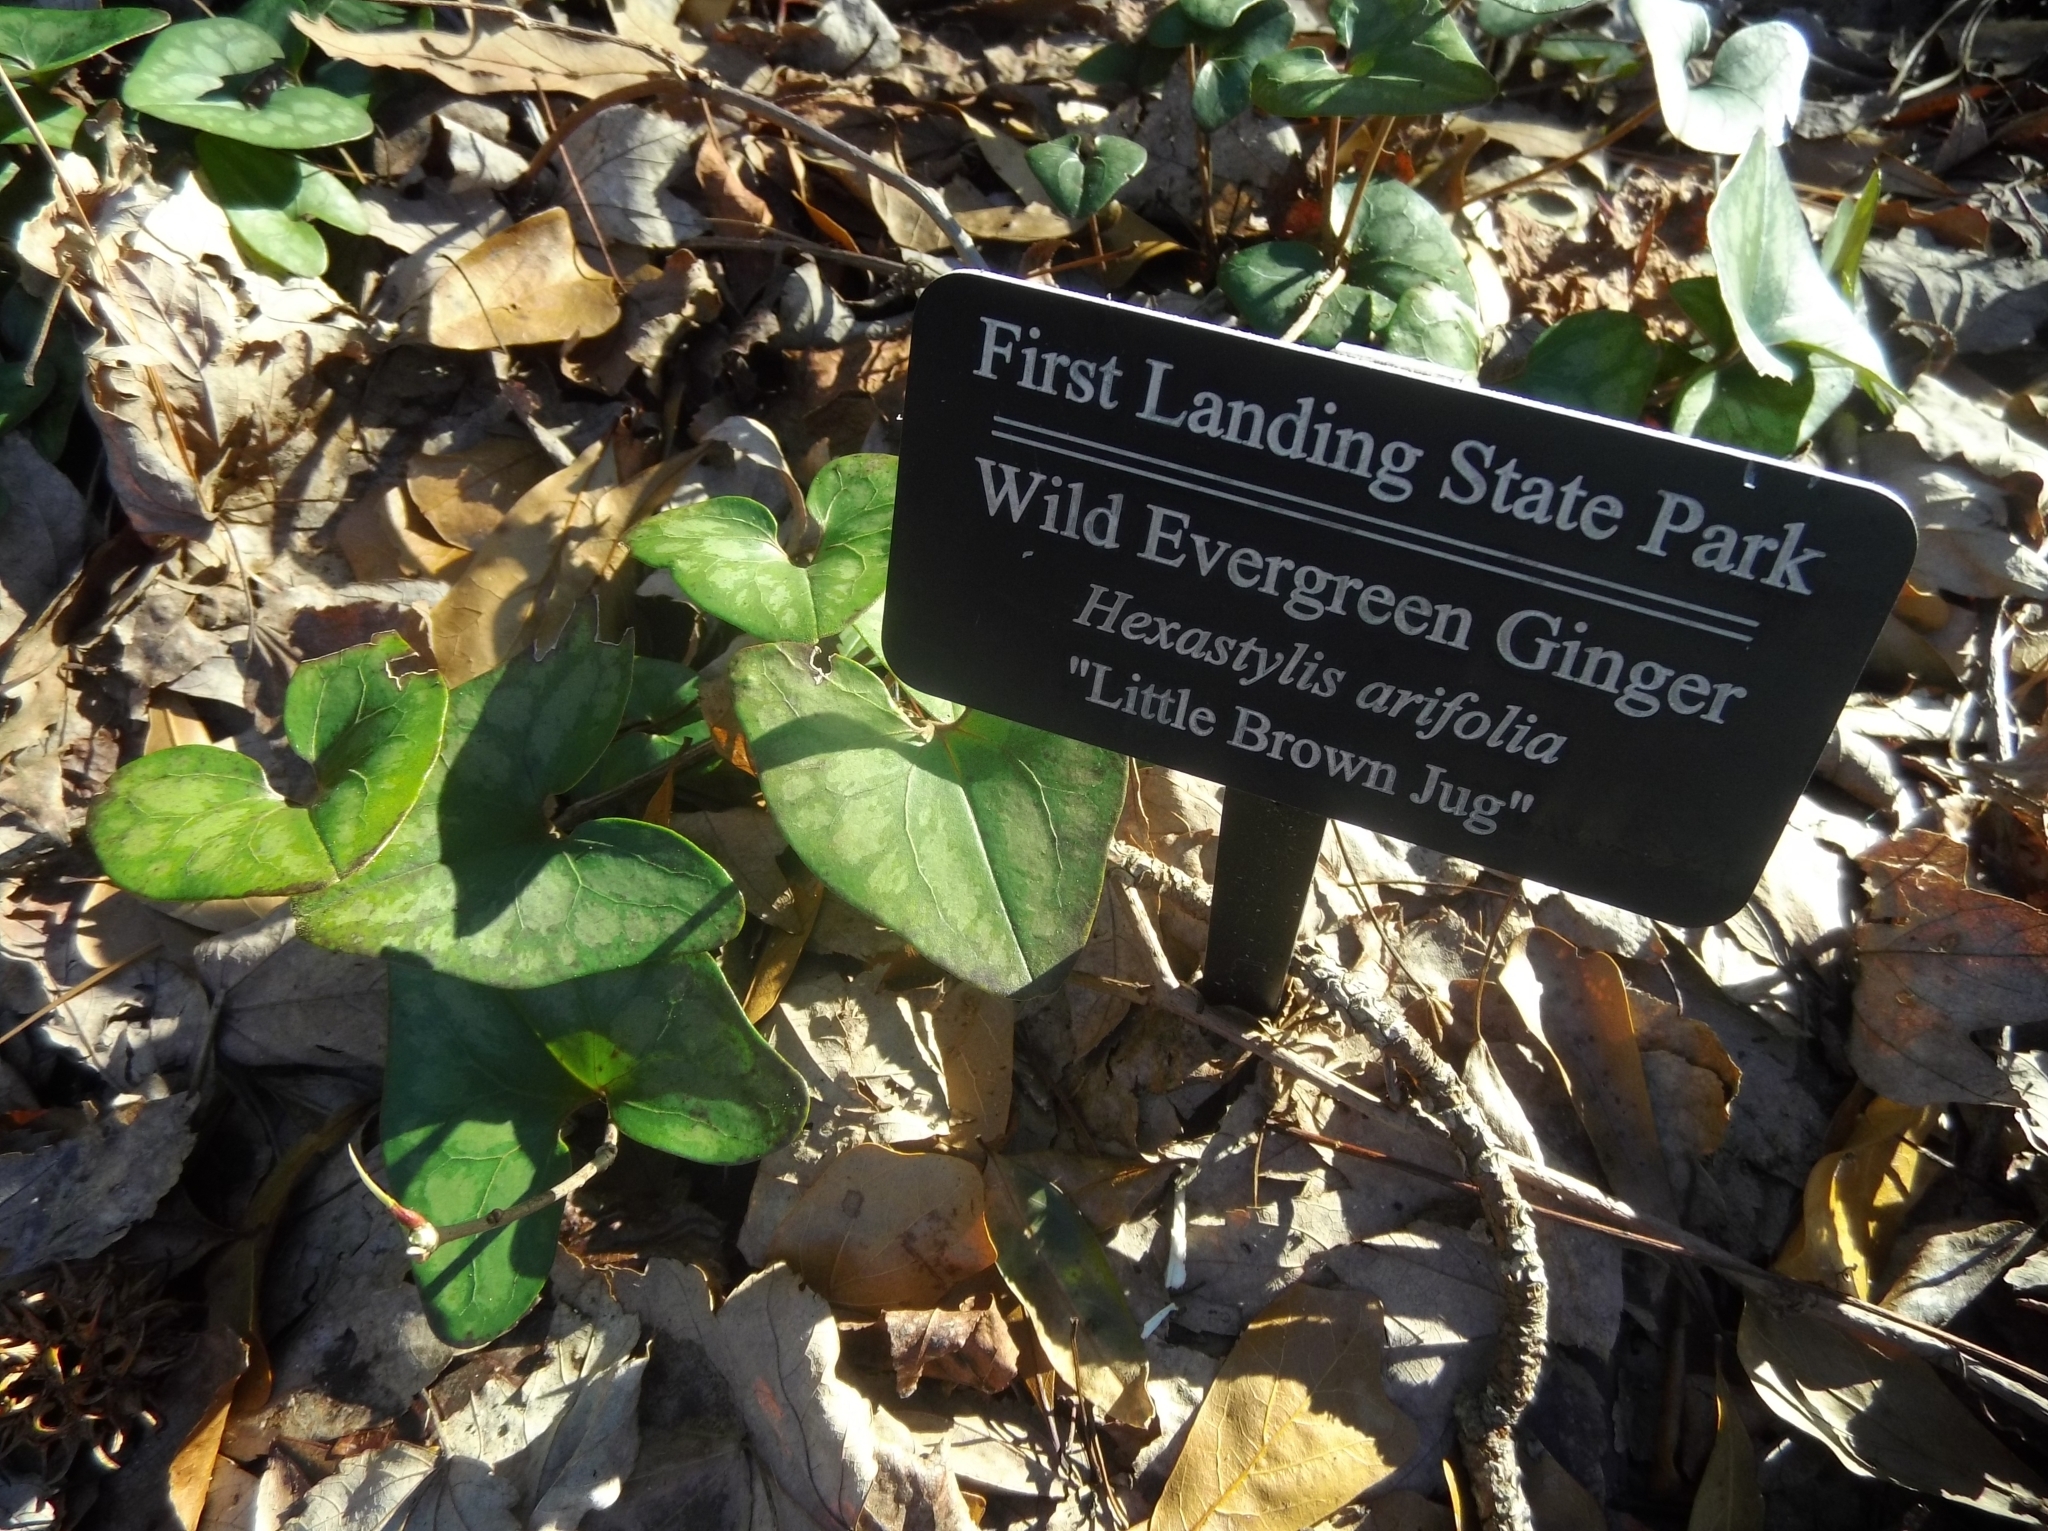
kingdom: Plantae
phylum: Tracheophyta
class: Magnoliopsida
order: Piperales
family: Aristolochiaceae
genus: Hexastylis
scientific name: Hexastylis arifolia
